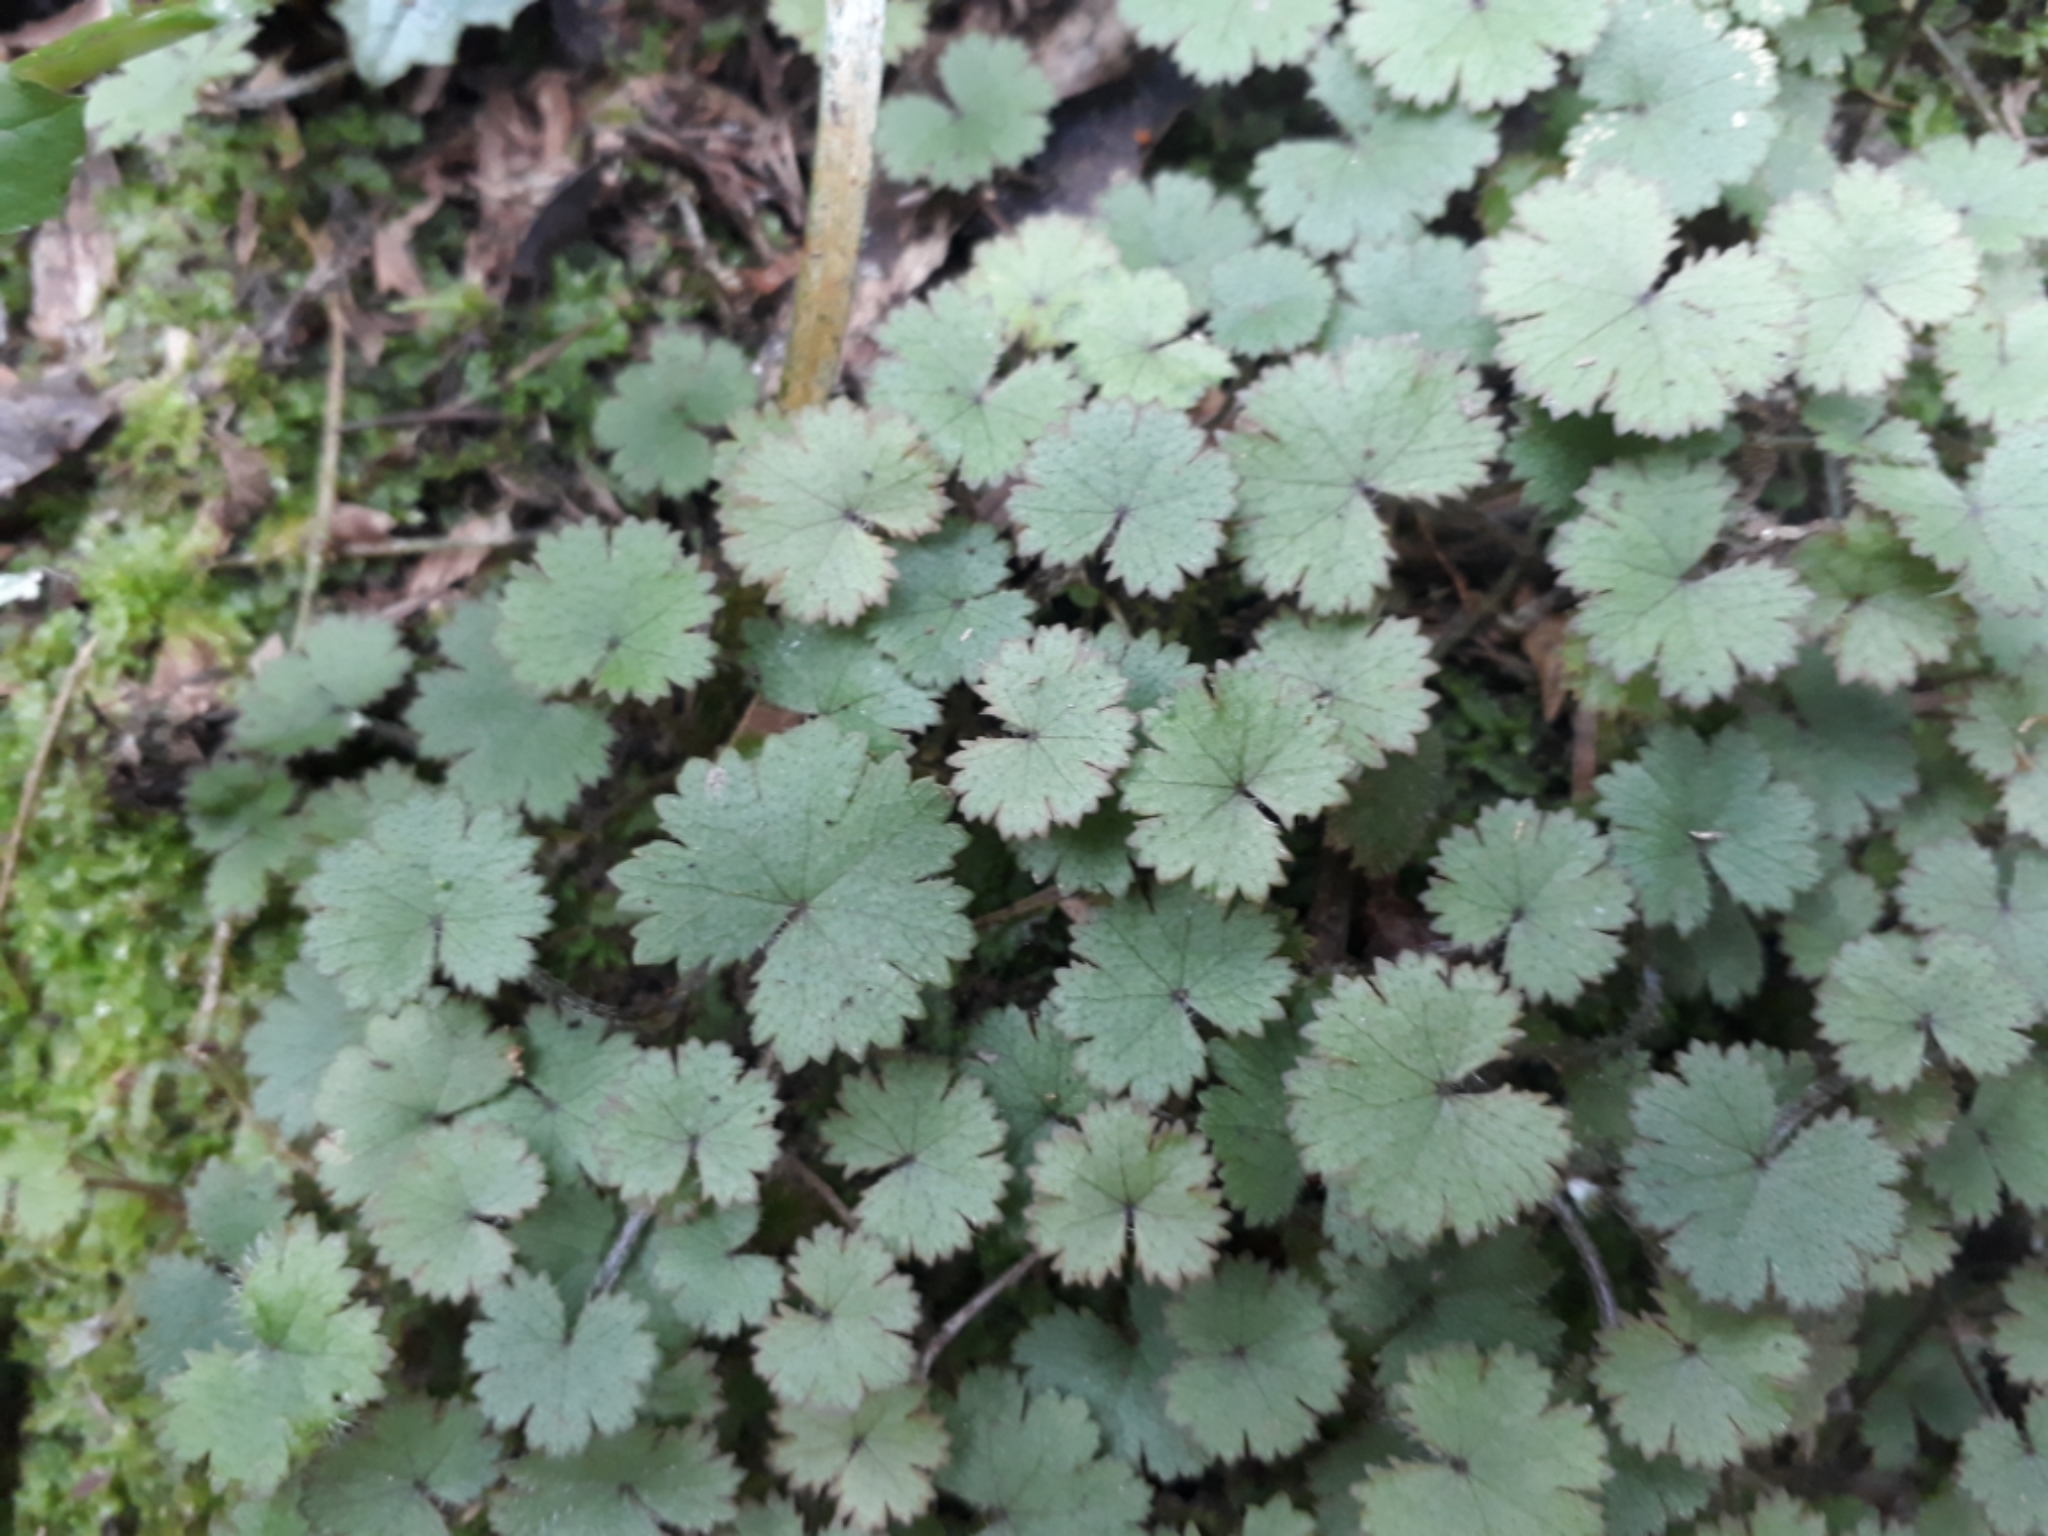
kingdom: Plantae
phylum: Tracheophyta
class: Magnoliopsida
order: Apiales
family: Araliaceae
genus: Hydrocotyle
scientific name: Hydrocotyle moschata
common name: Hairy pennywort
